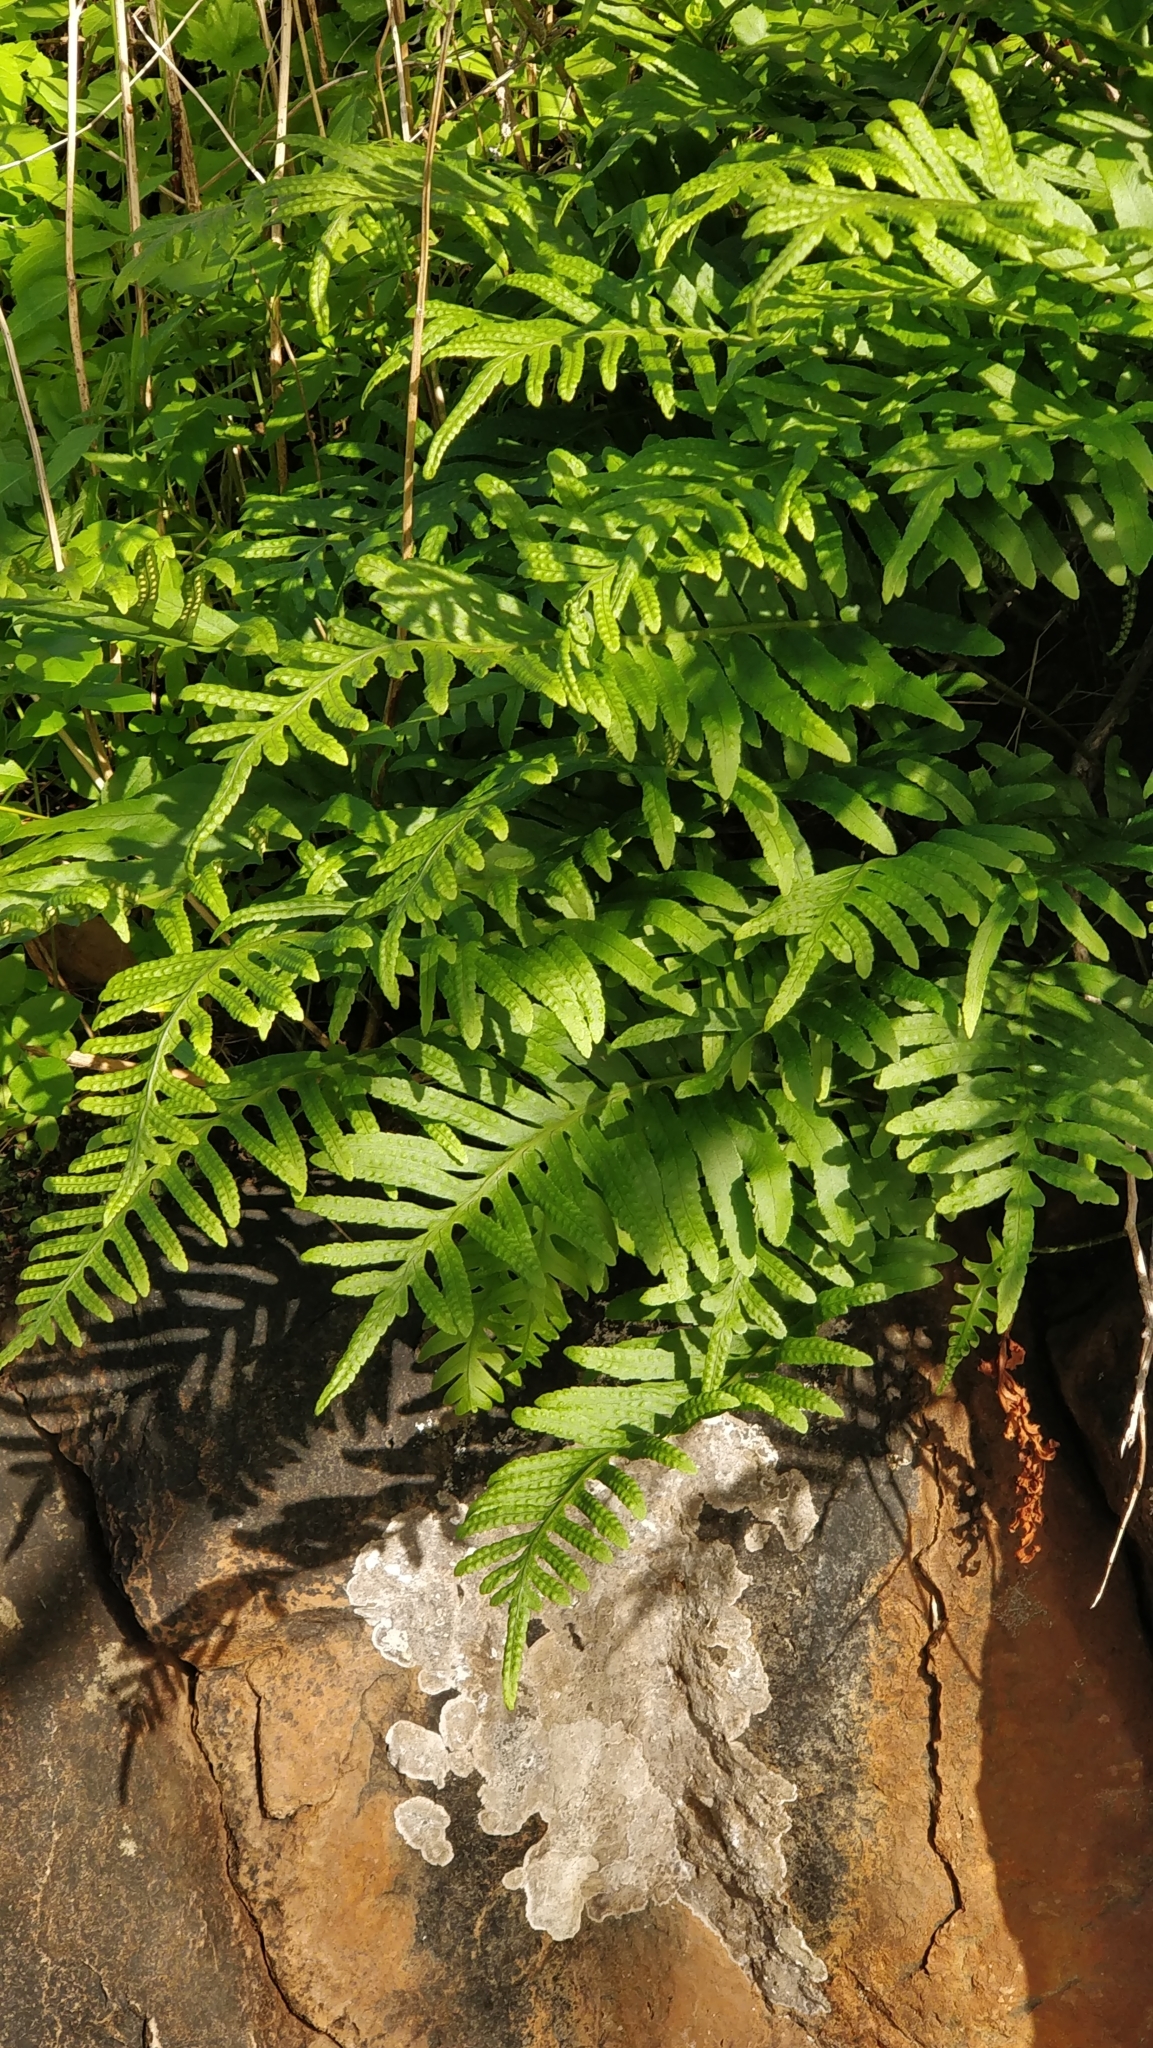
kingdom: Plantae
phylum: Tracheophyta
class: Polypodiopsida
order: Polypodiales
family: Polypodiaceae
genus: Polypodium
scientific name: Polypodium macaronesicum
